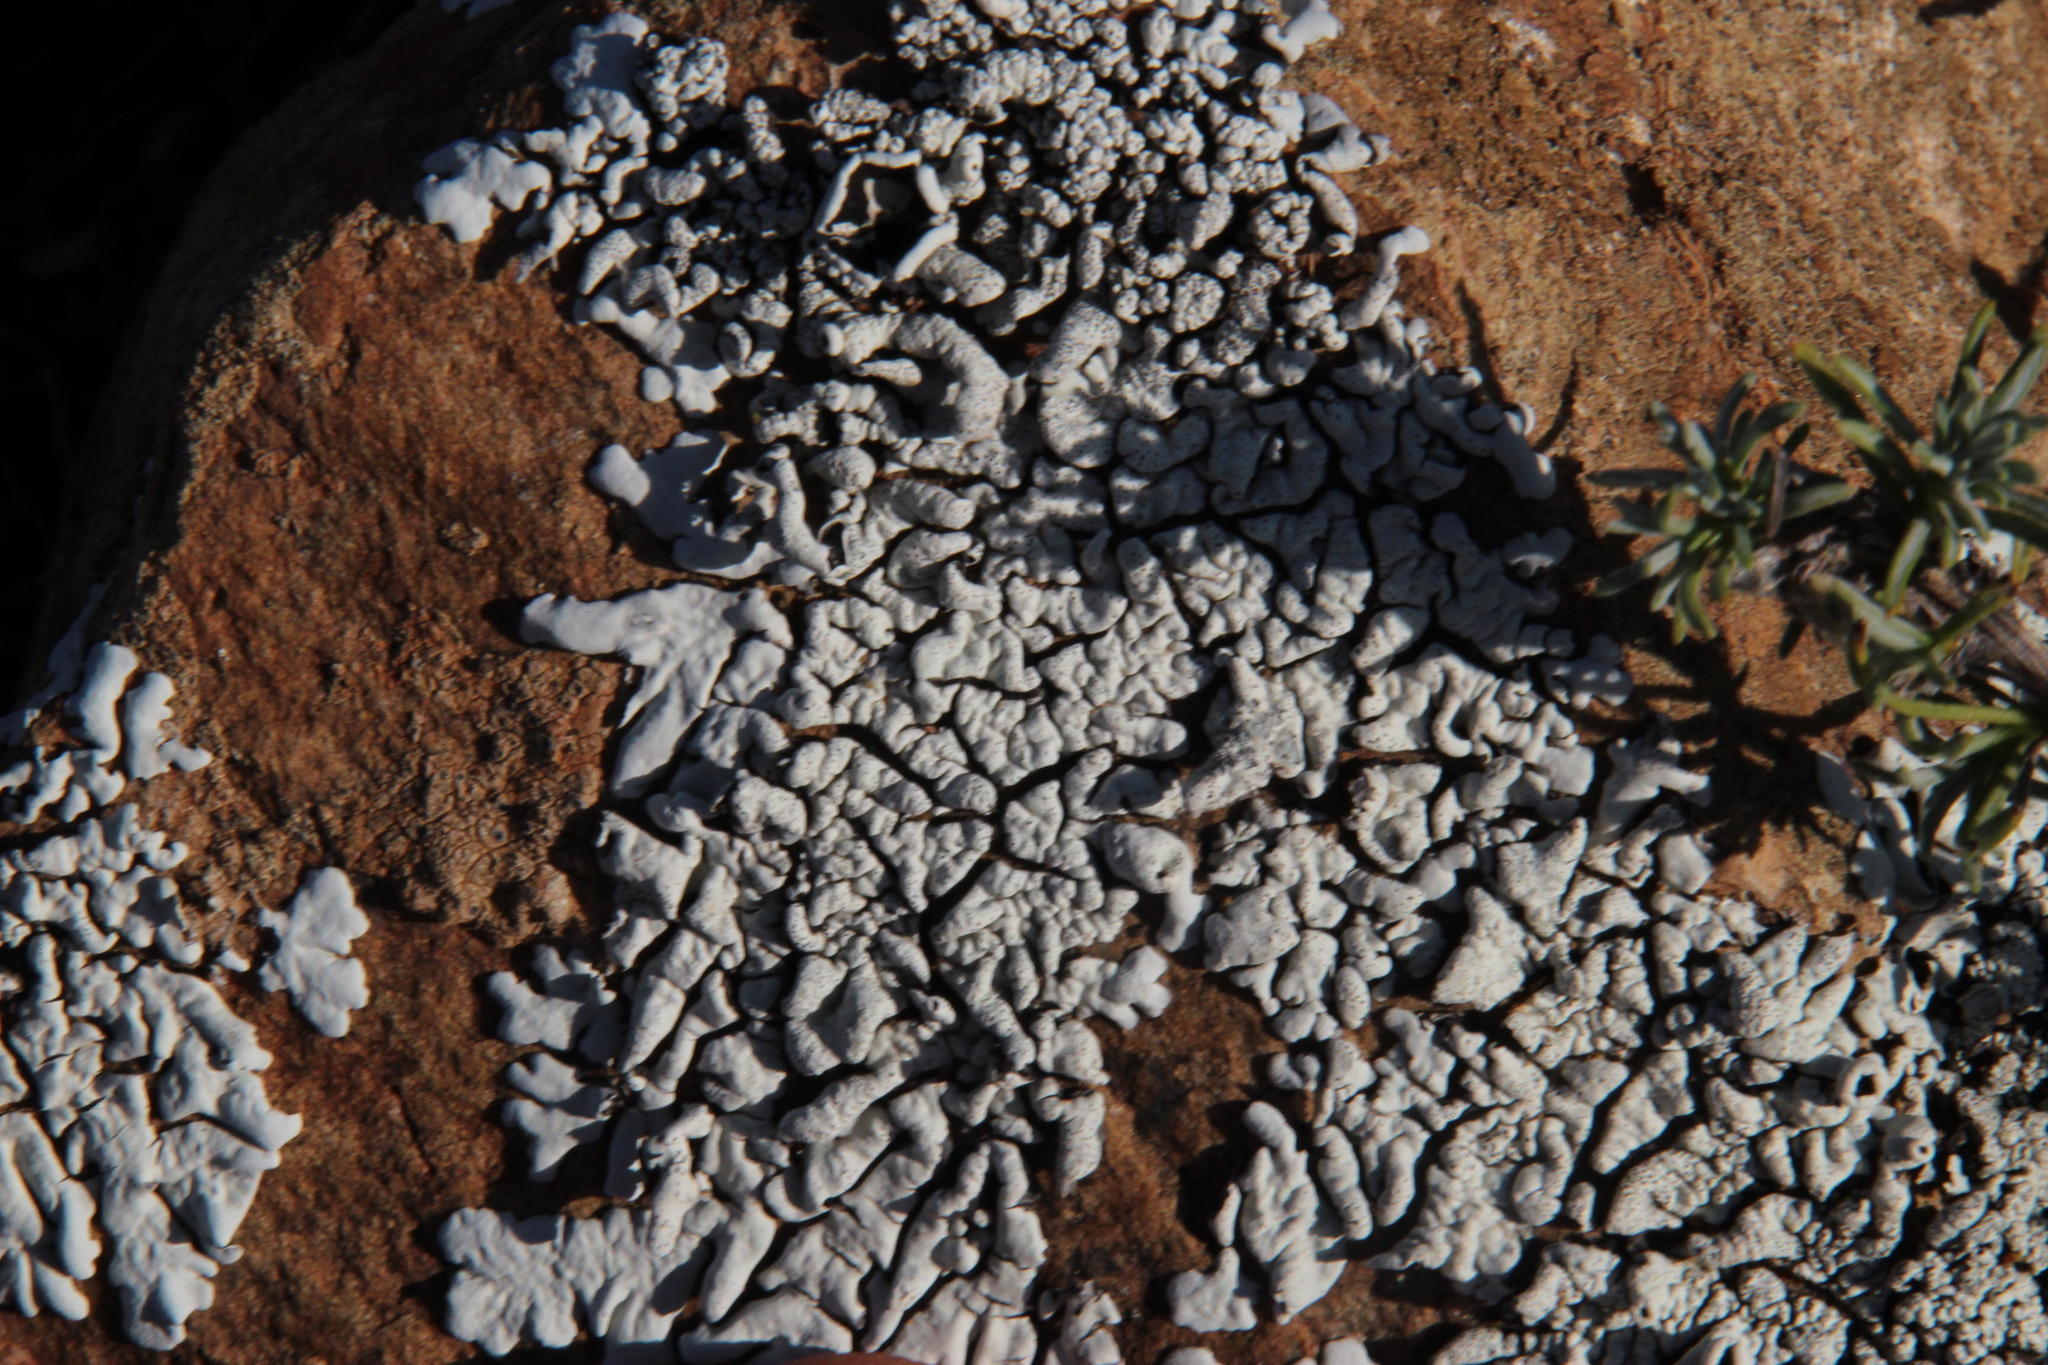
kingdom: Fungi
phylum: Ascomycota
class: Lecanoromycetes
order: Lecanorales
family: Parmeliaceae
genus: Xanthoparmelia
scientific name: Xanthoparmelia equalis
